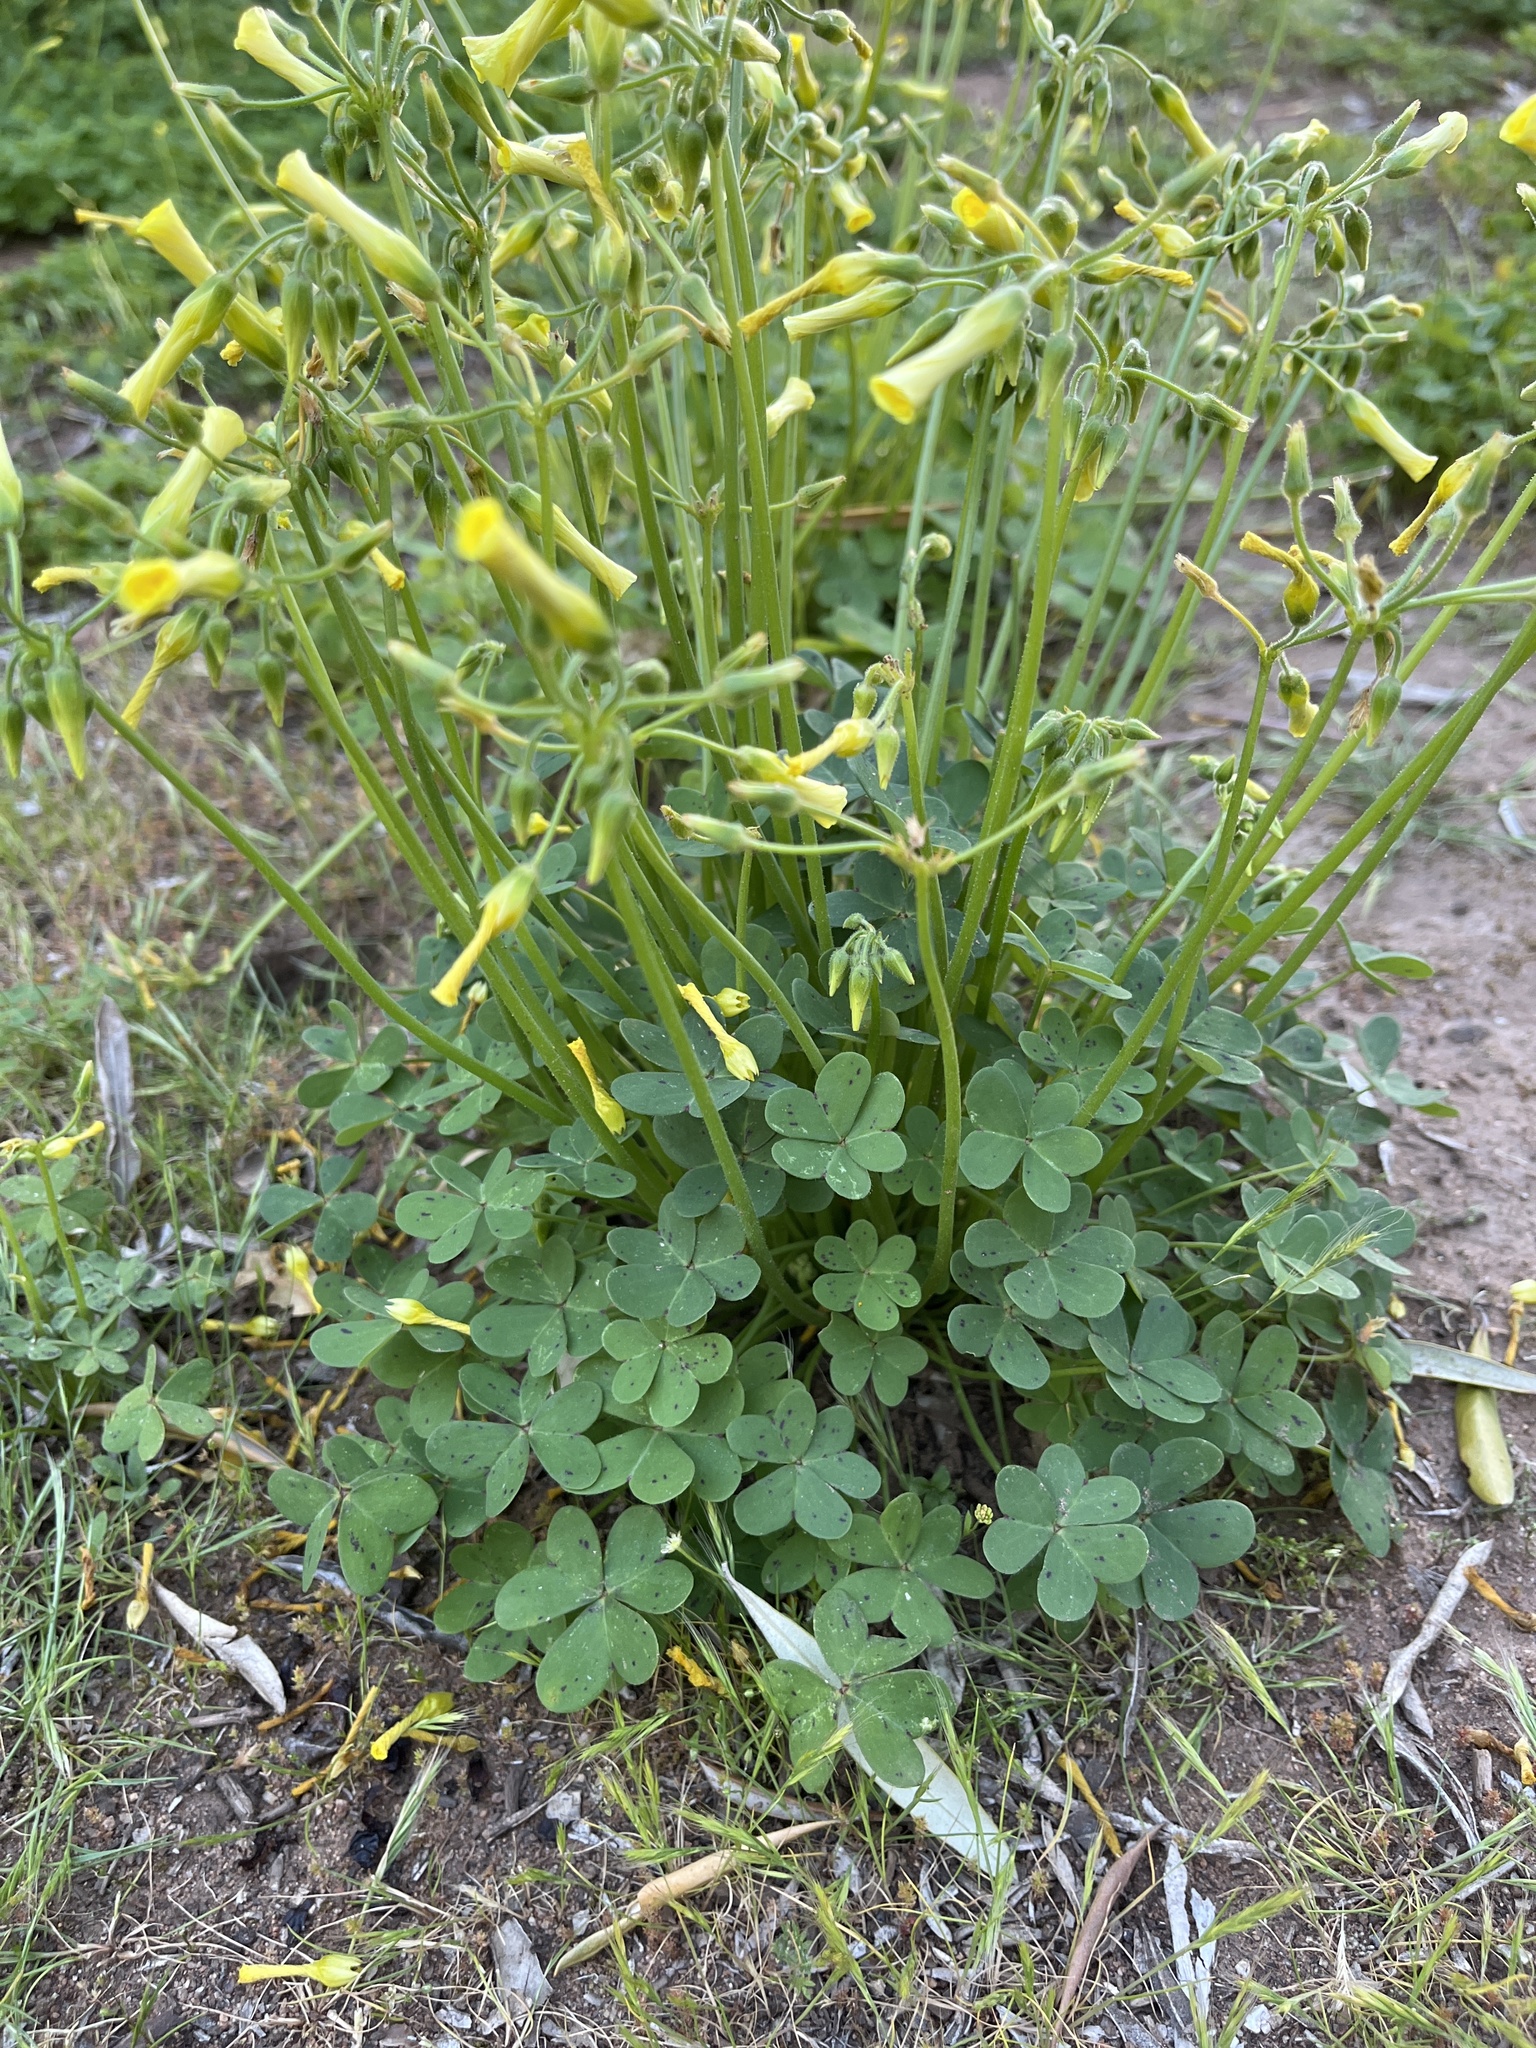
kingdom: Plantae
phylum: Tracheophyta
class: Magnoliopsida
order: Oxalidales
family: Oxalidaceae
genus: Oxalis
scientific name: Oxalis pes-caprae
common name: Bermuda-buttercup
